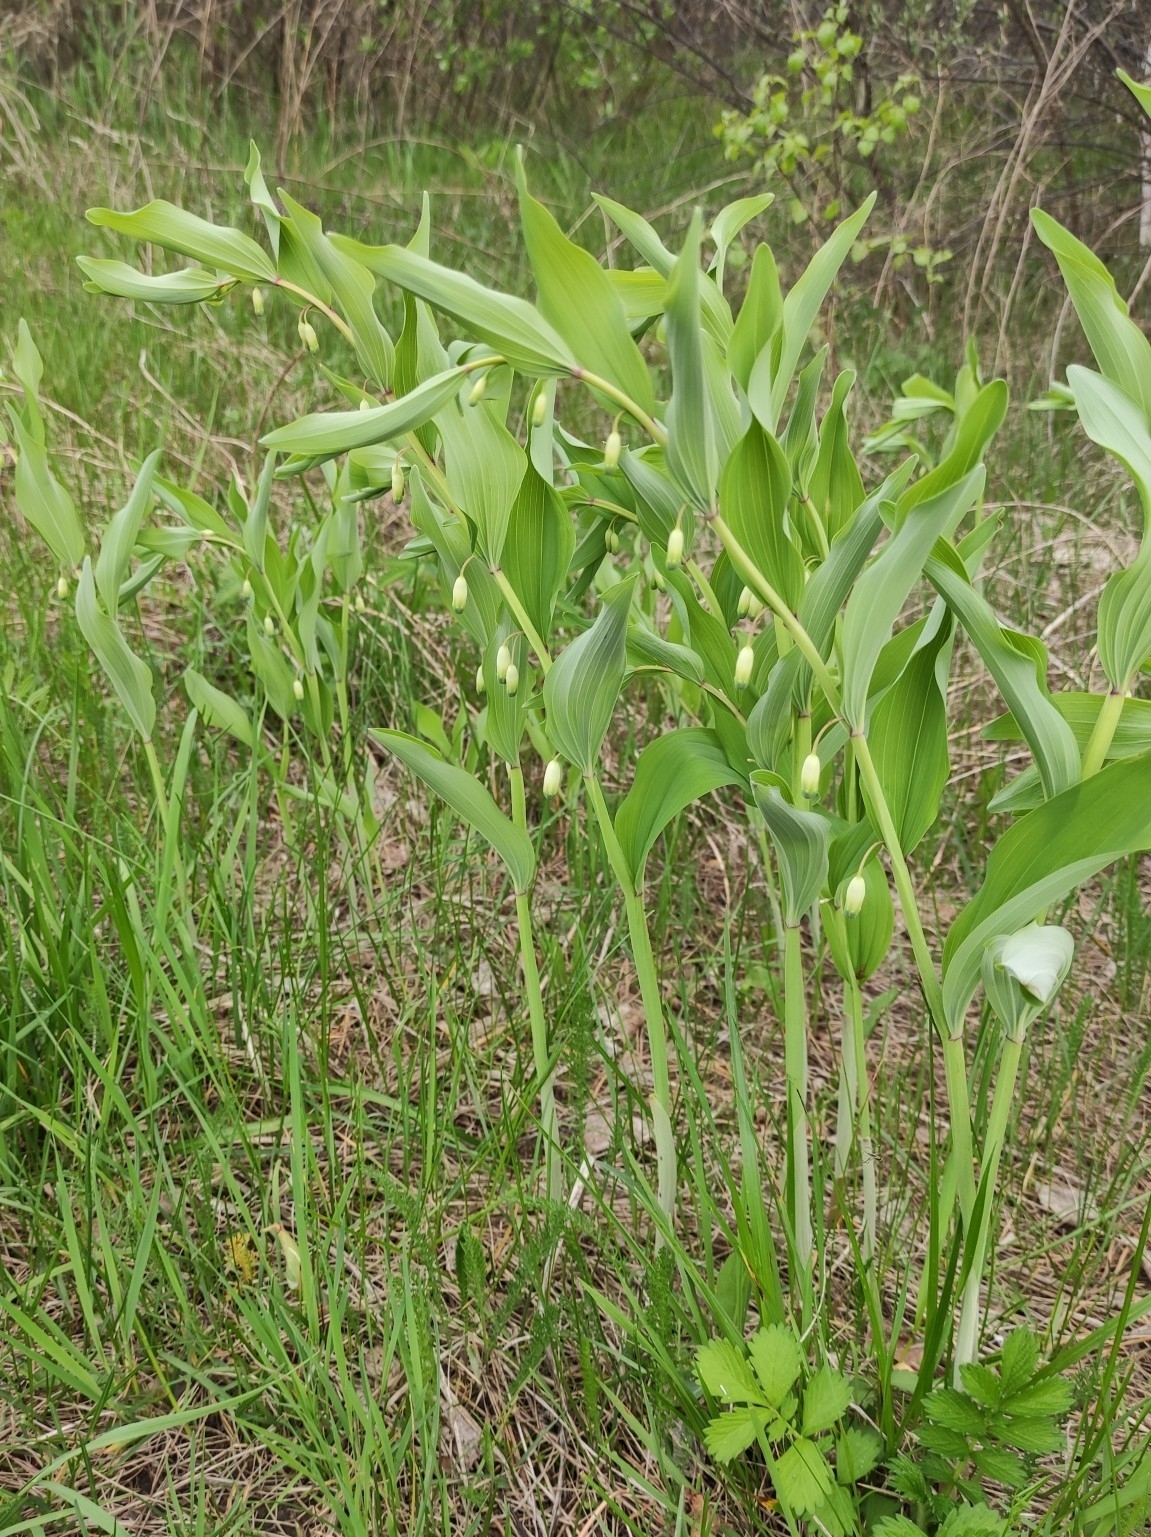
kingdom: Plantae
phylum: Tracheophyta
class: Liliopsida
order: Asparagales
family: Asparagaceae
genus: Polygonatum
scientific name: Polygonatum odoratum
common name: Angular solomon's-seal
